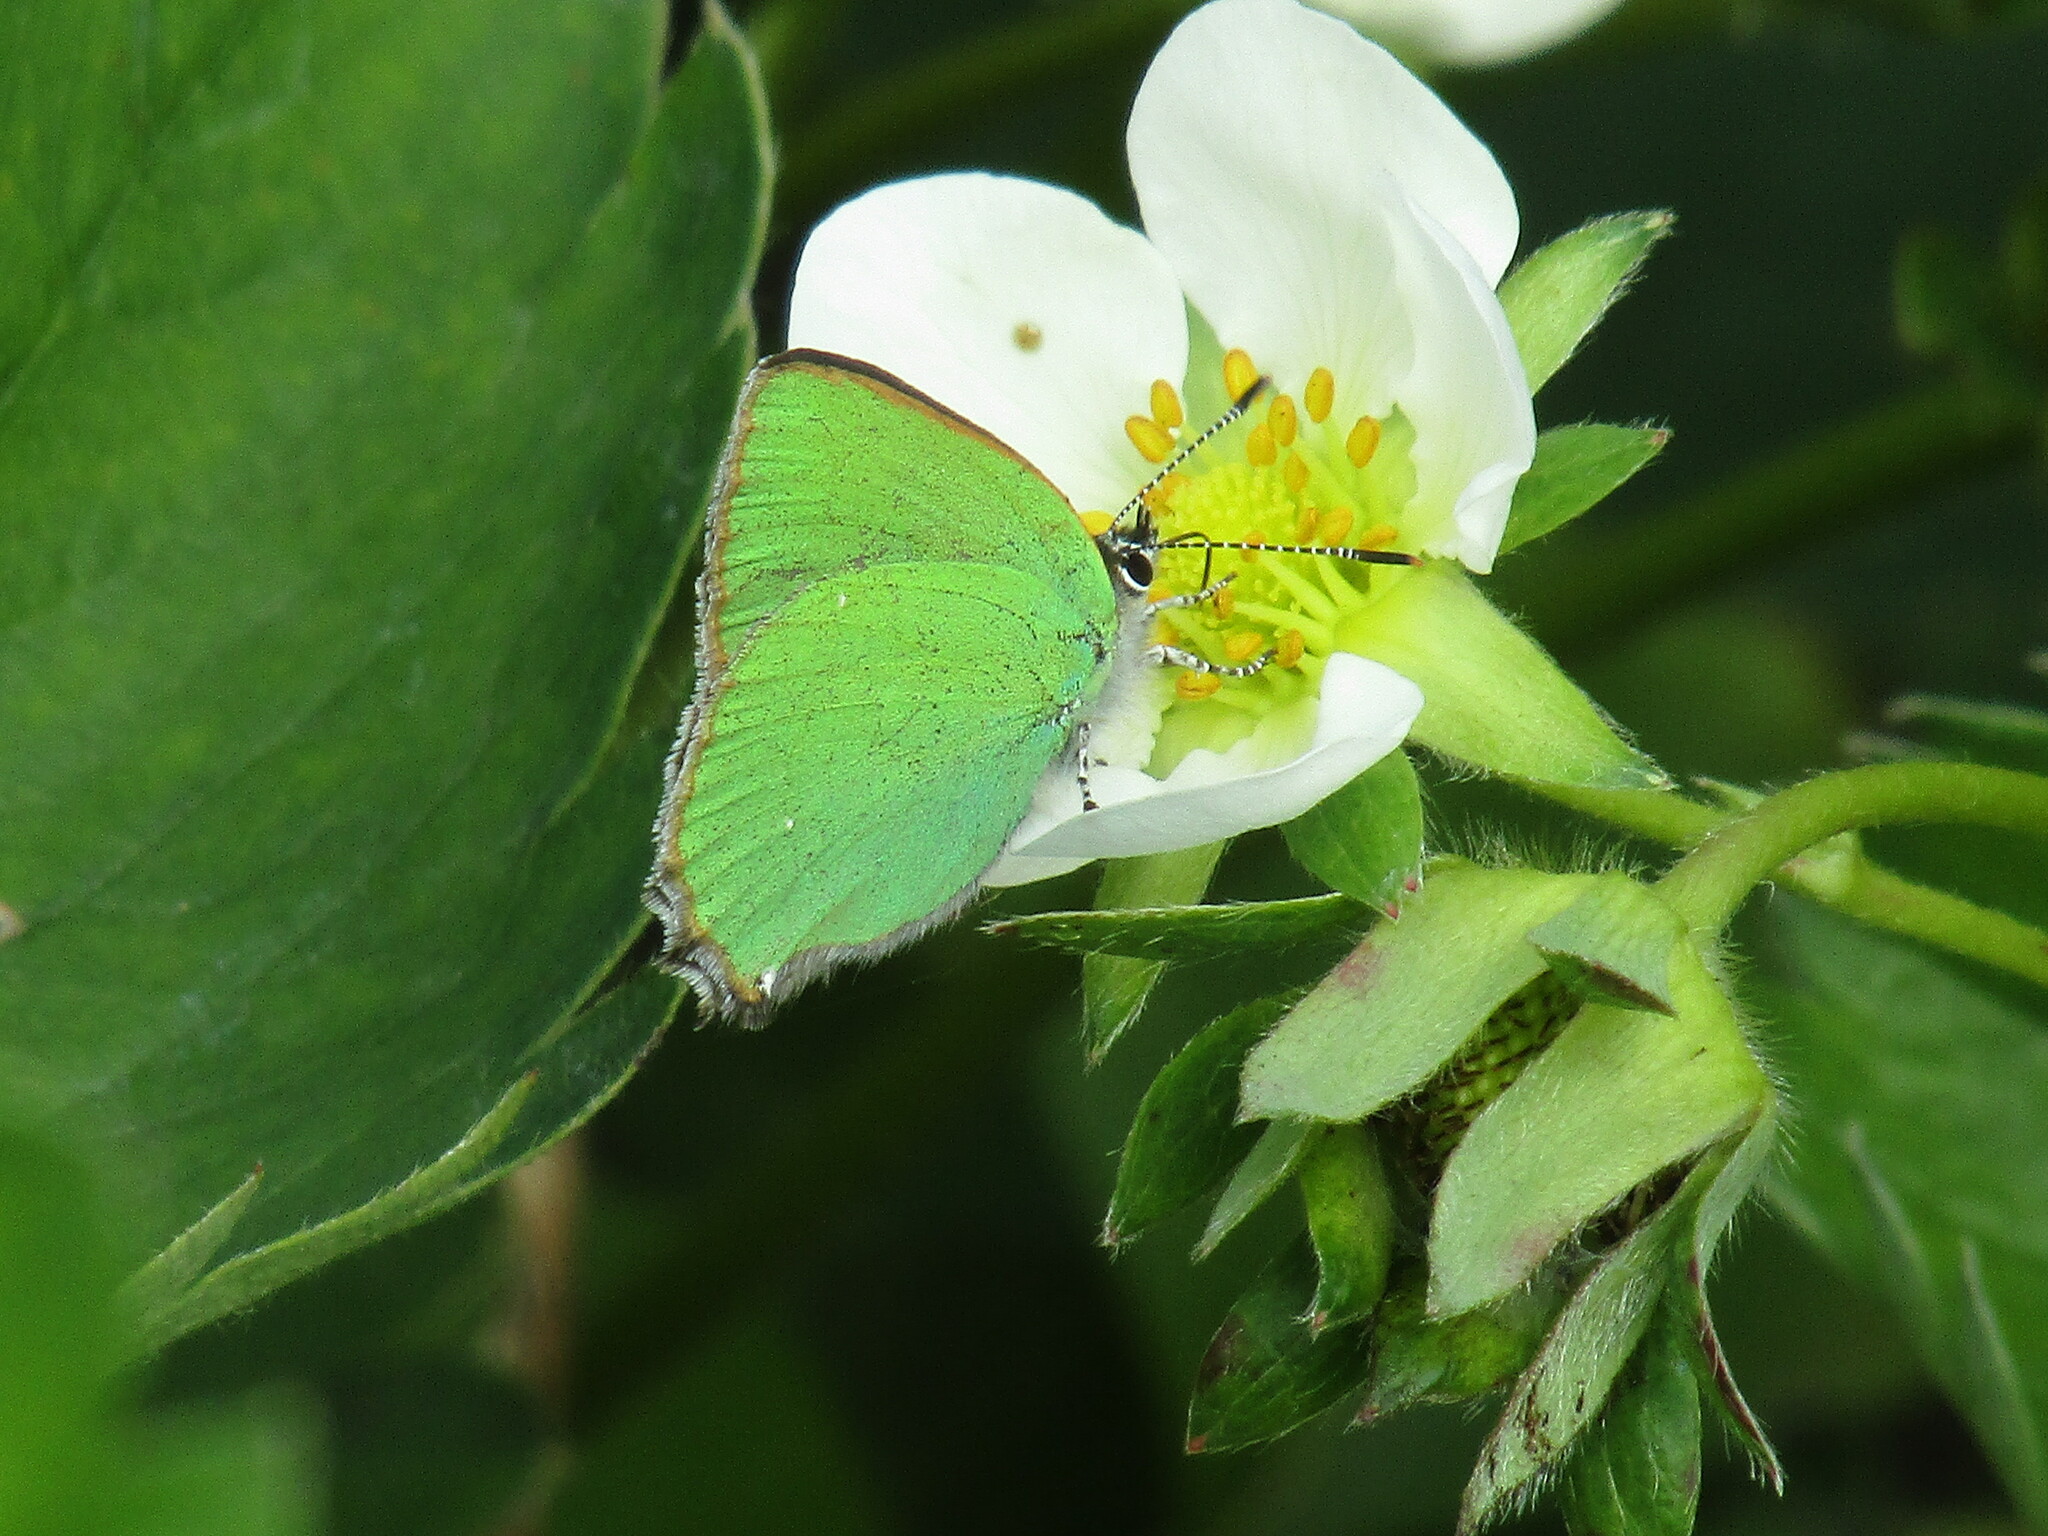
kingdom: Animalia
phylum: Arthropoda
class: Insecta
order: Lepidoptera
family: Lycaenidae
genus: Callophrys
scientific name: Callophrys rubi
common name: Green hairstreak
